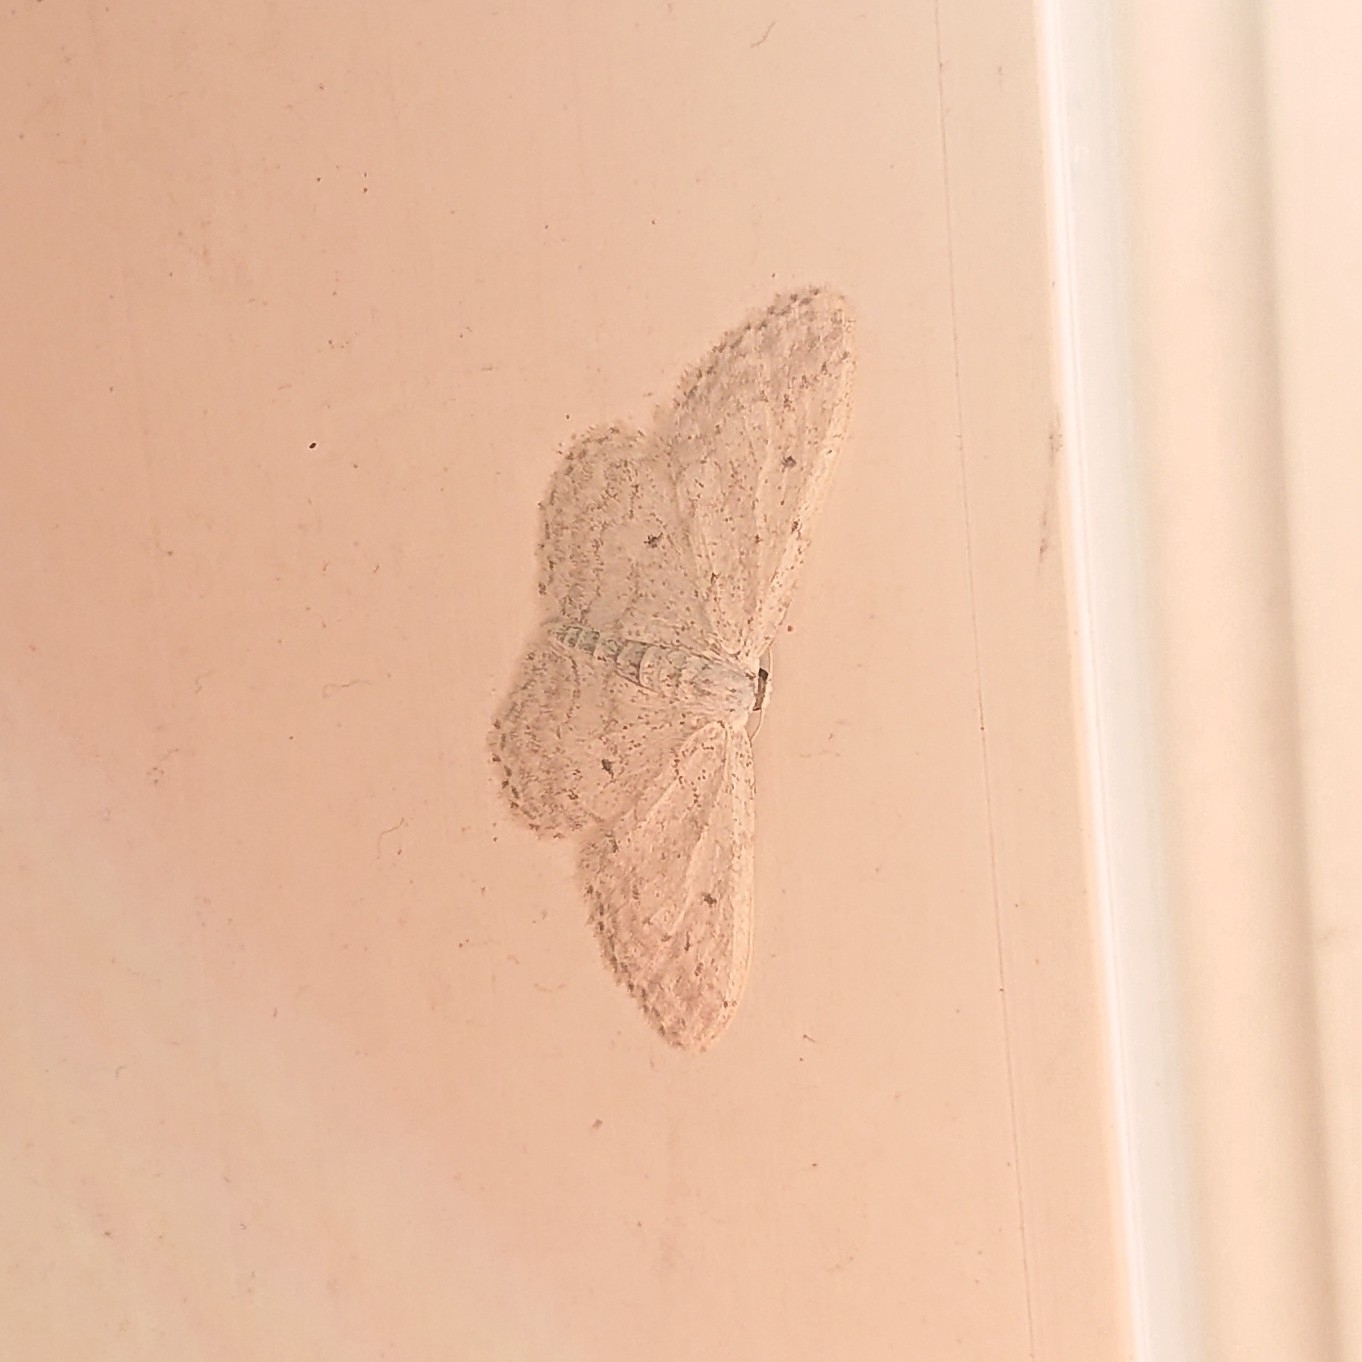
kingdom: Animalia
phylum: Arthropoda
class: Insecta
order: Lepidoptera
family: Geometridae
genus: Idaea
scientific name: Idaea seriata
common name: Small dusty wave
